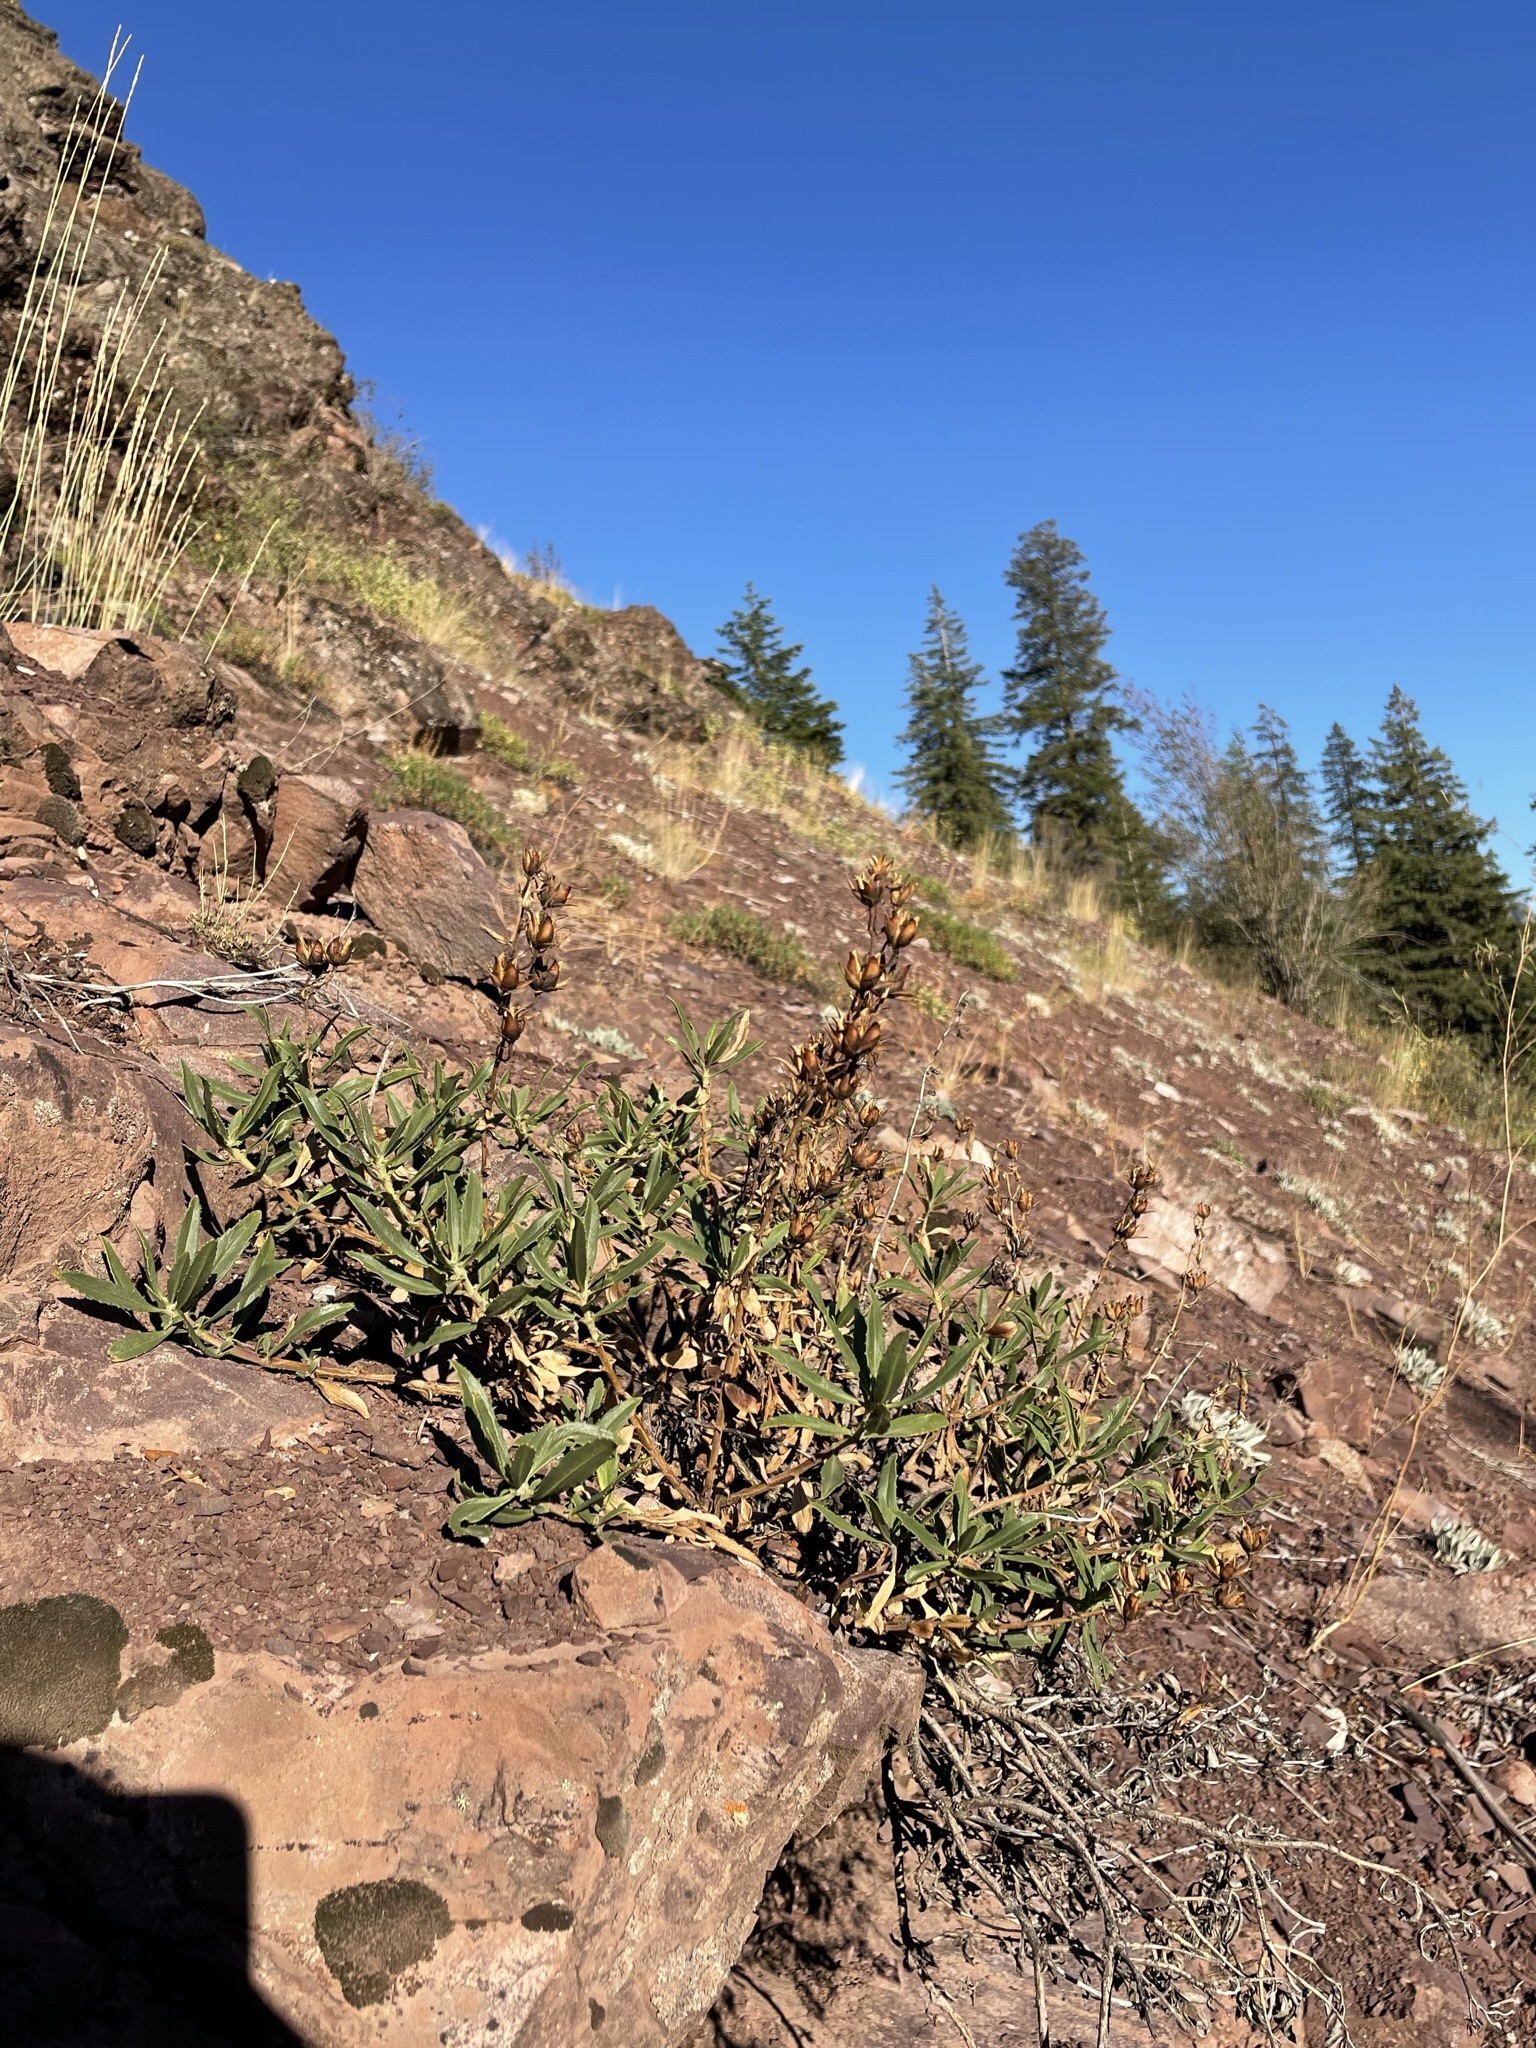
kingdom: Plantae
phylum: Tracheophyta
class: Magnoliopsida
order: Lamiales
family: Plantaginaceae
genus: Penstemon
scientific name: Penstemon fruticosus
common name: Bush penstemon
